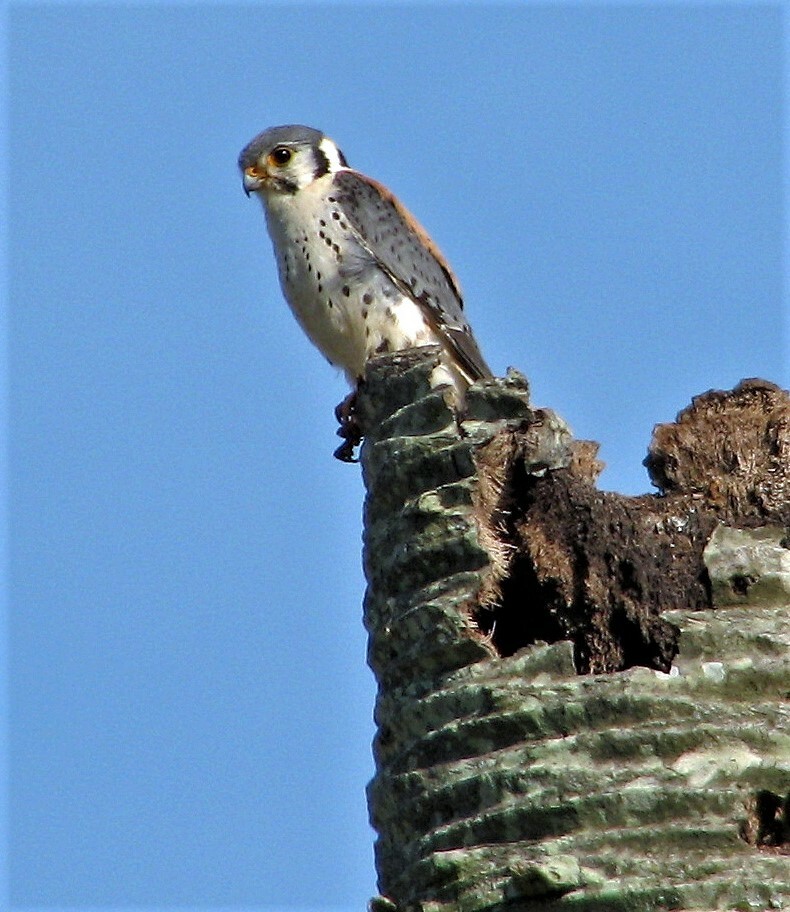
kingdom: Animalia
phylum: Chordata
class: Aves
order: Falconiformes
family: Falconidae
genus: Falco
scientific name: Falco sparverius
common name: American kestrel
